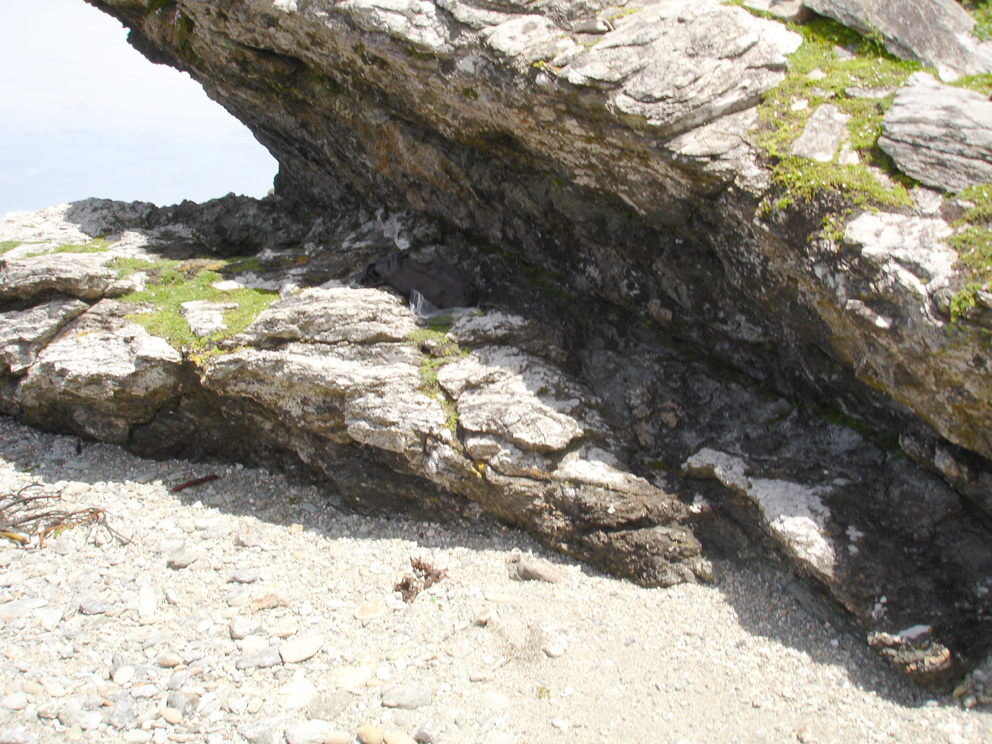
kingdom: Plantae
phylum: Tracheophyta
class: Polypodiopsida
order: Polypodiales
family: Aspleniaceae
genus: Asplenium
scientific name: Asplenium pauperequitum
